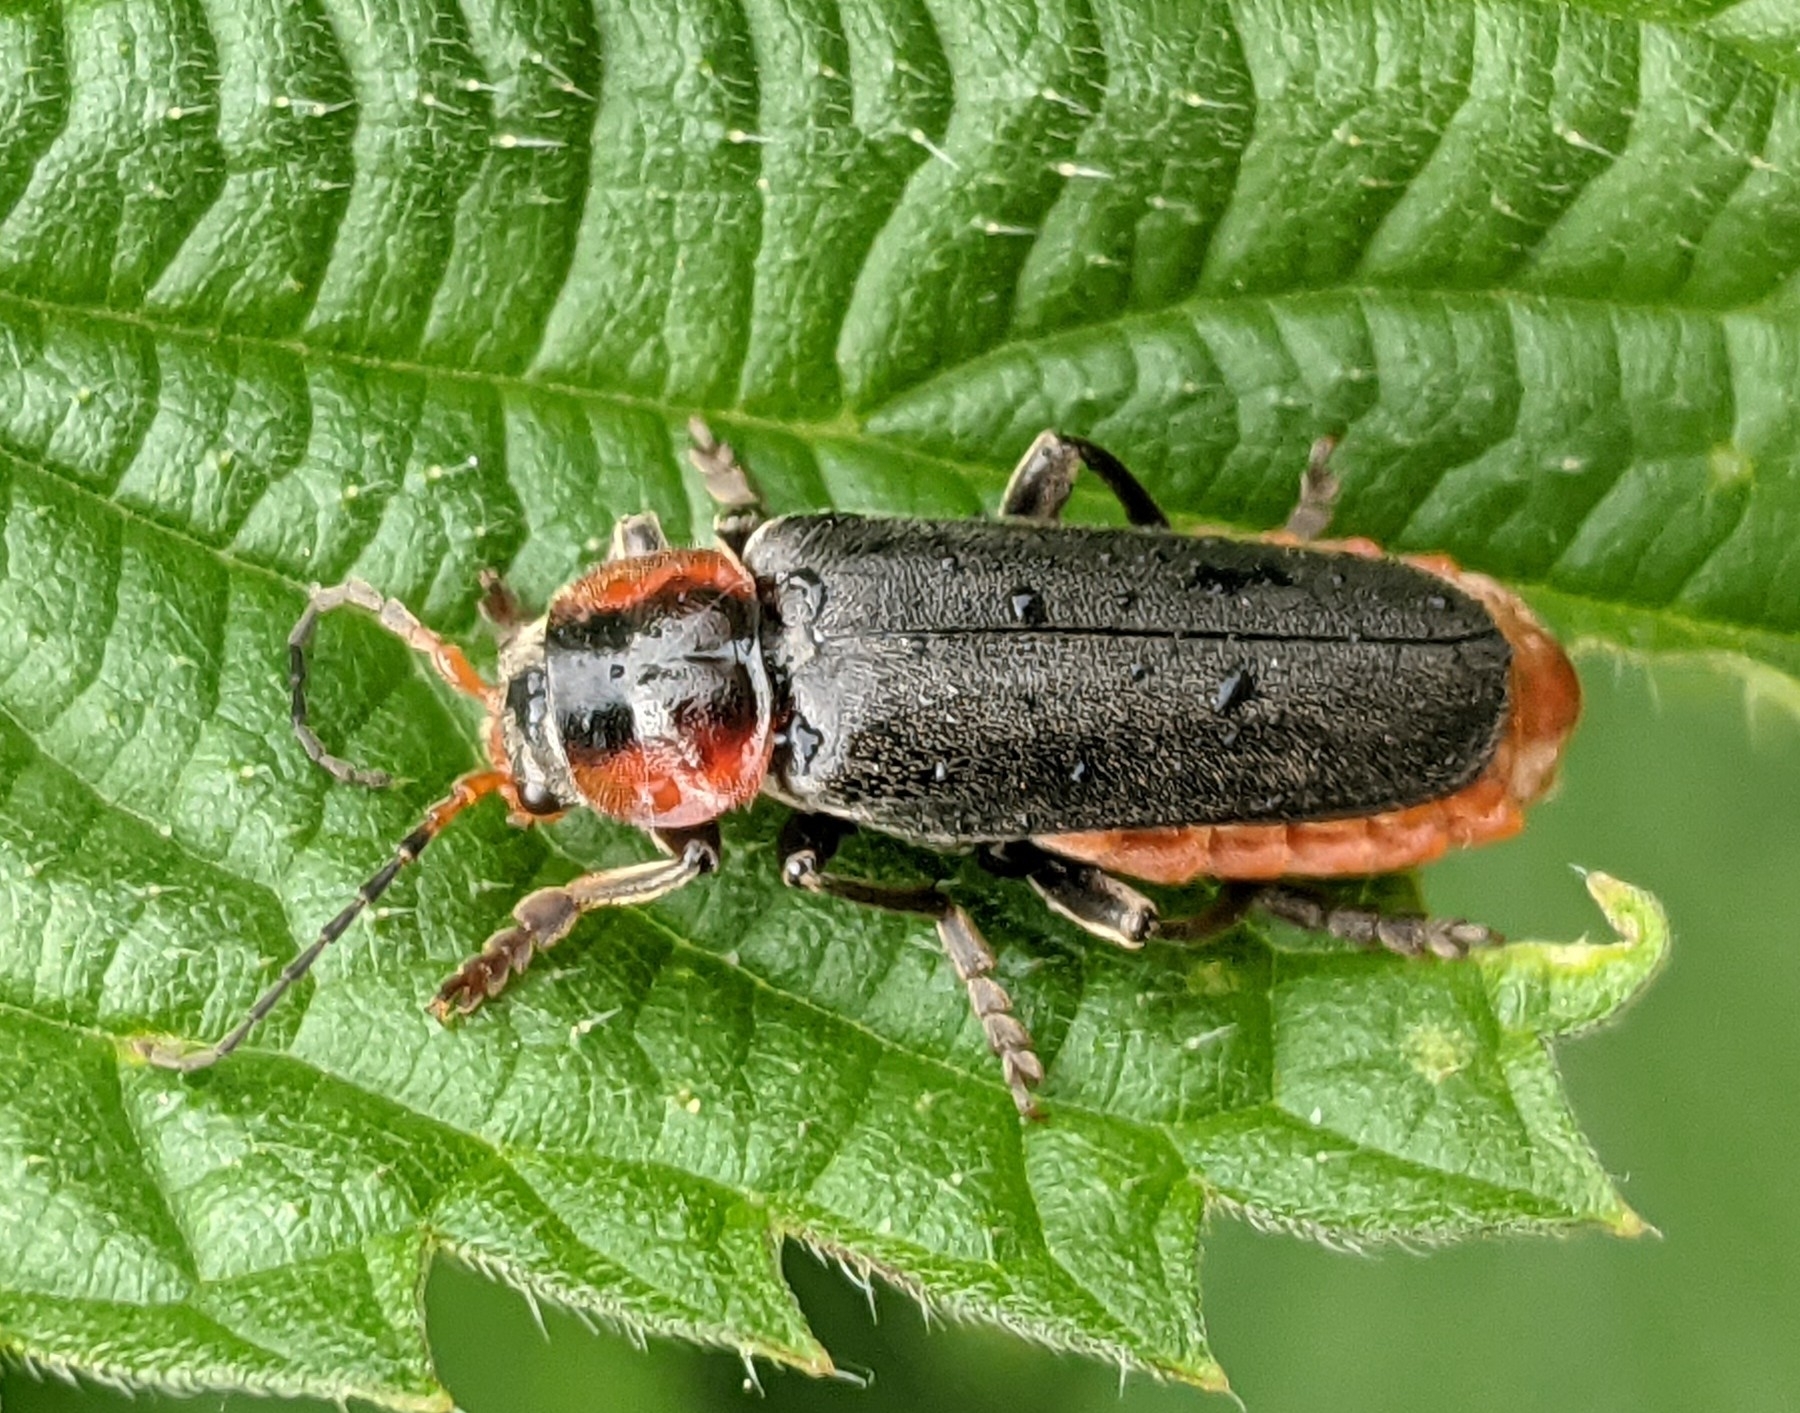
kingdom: Animalia
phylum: Arthropoda
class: Insecta
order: Coleoptera
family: Cantharidae
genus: Cantharis
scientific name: Cantharis fusca
